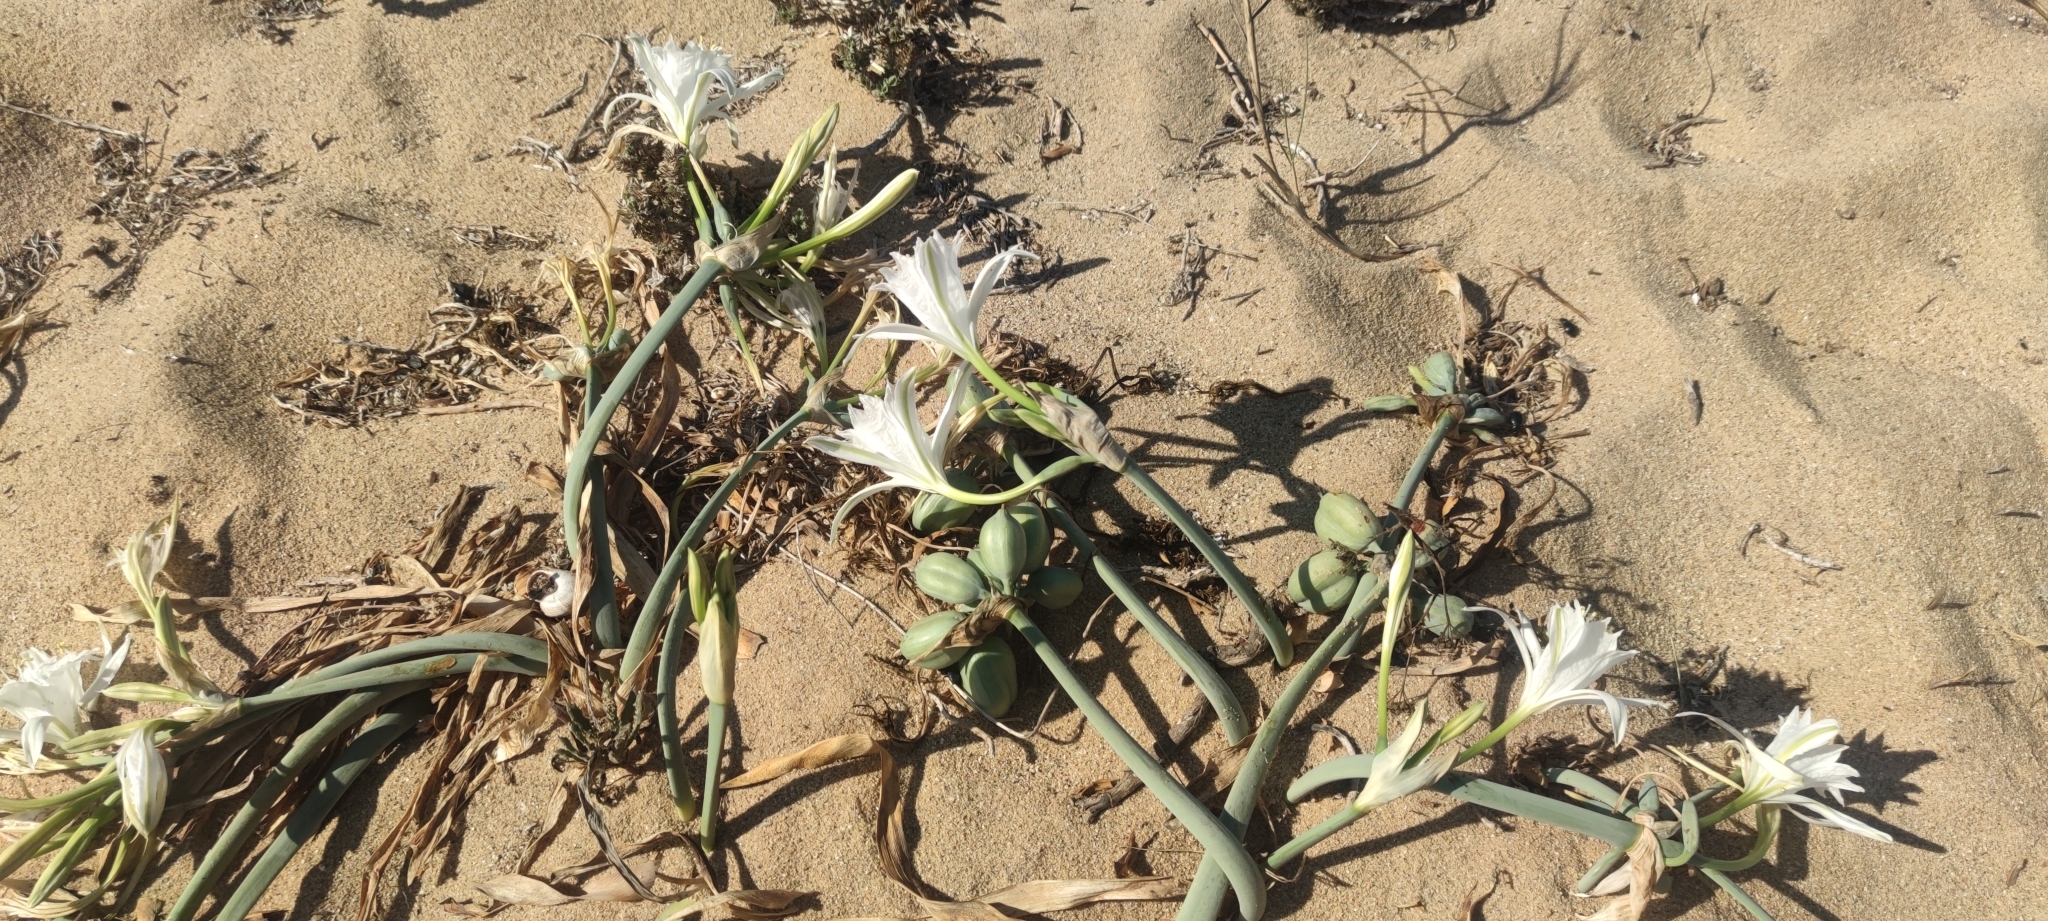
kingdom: Plantae
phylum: Tracheophyta
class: Liliopsida
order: Asparagales
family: Amaryllidaceae
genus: Pancratium
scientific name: Pancratium maritimum
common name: Sea-daffodil
